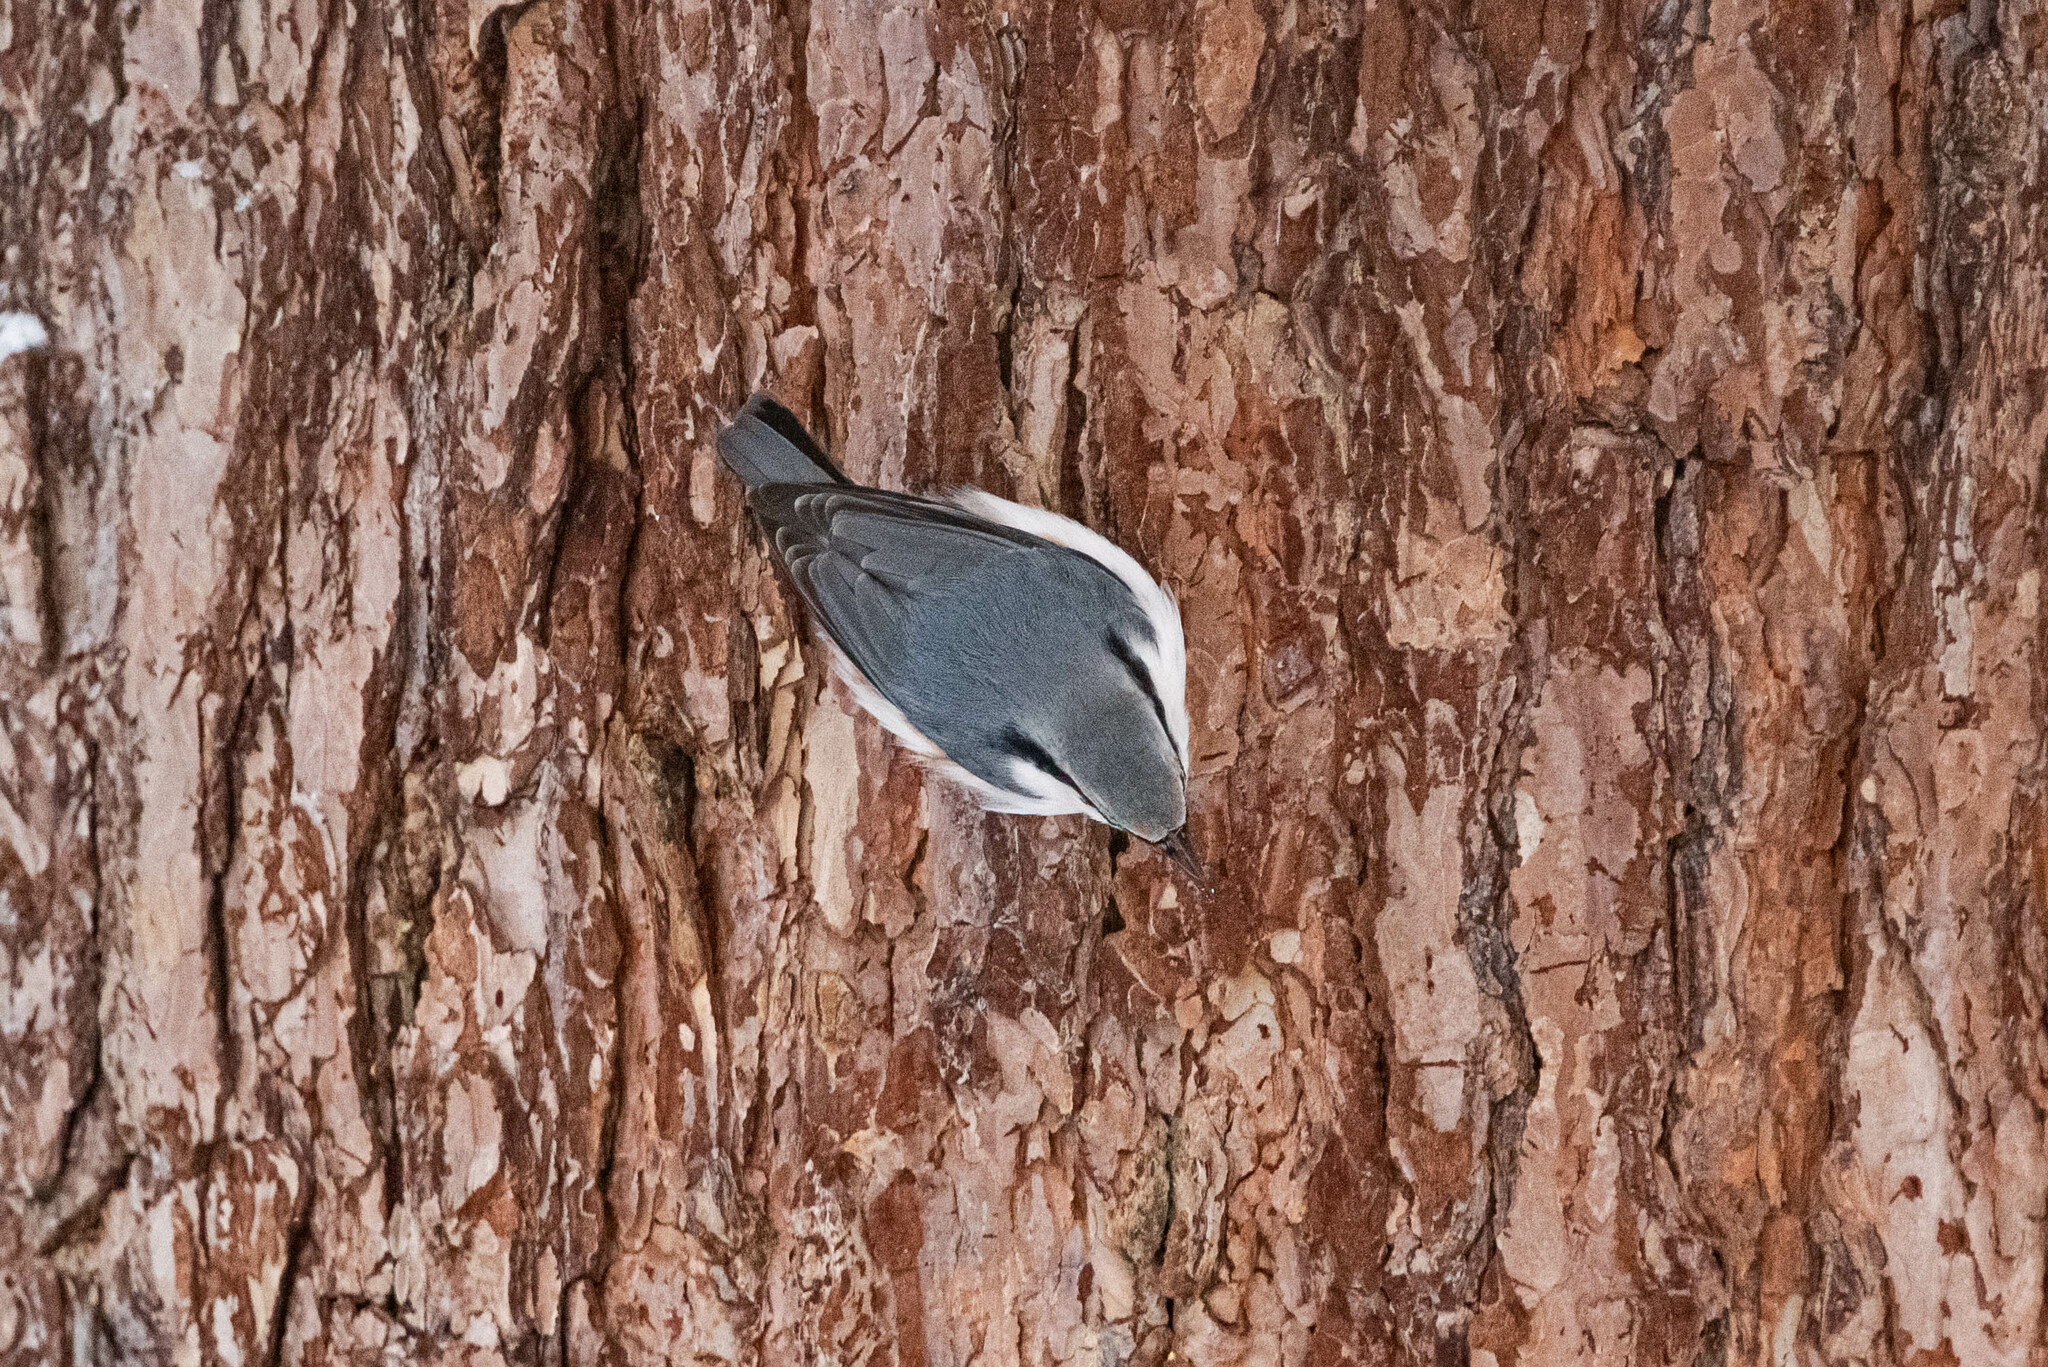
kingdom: Animalia
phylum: Chordata
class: Aves
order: Passeriformes
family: Sittidae
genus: Sitta
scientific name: Sitta europaea
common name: Eurasian nuthatch
